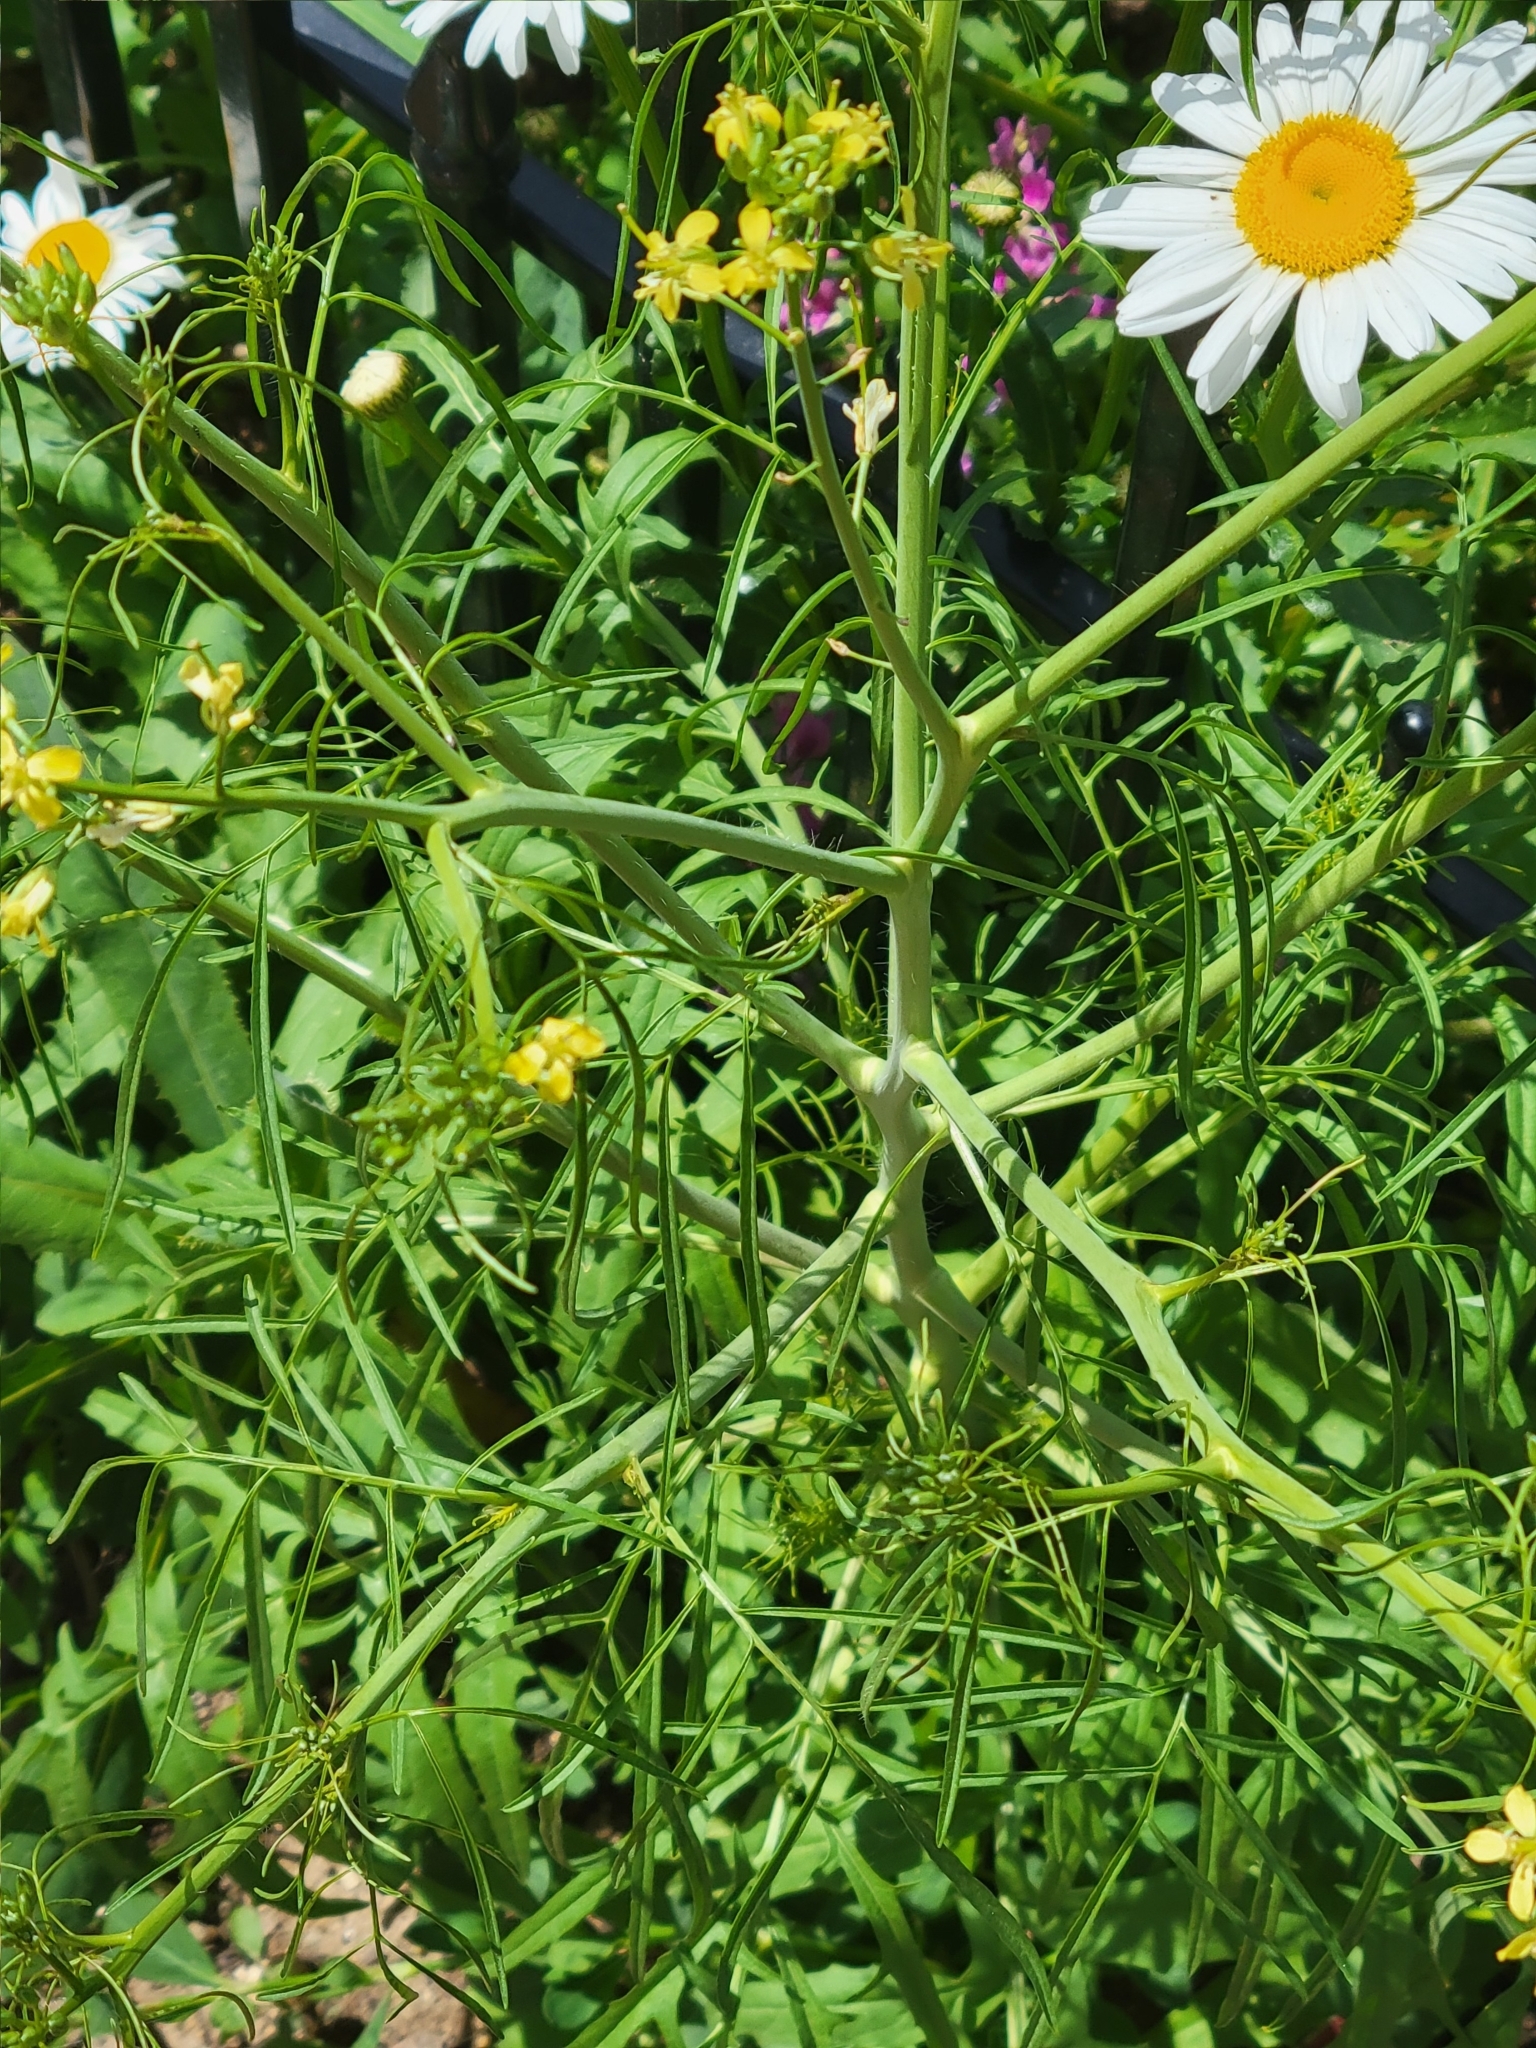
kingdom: Plantae
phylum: Tracheophyta
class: Magnoliopsida
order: Brassicales
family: Brassicaceae
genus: Sisymbrium
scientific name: Sisymbrium altissimum
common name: Tall rocket
